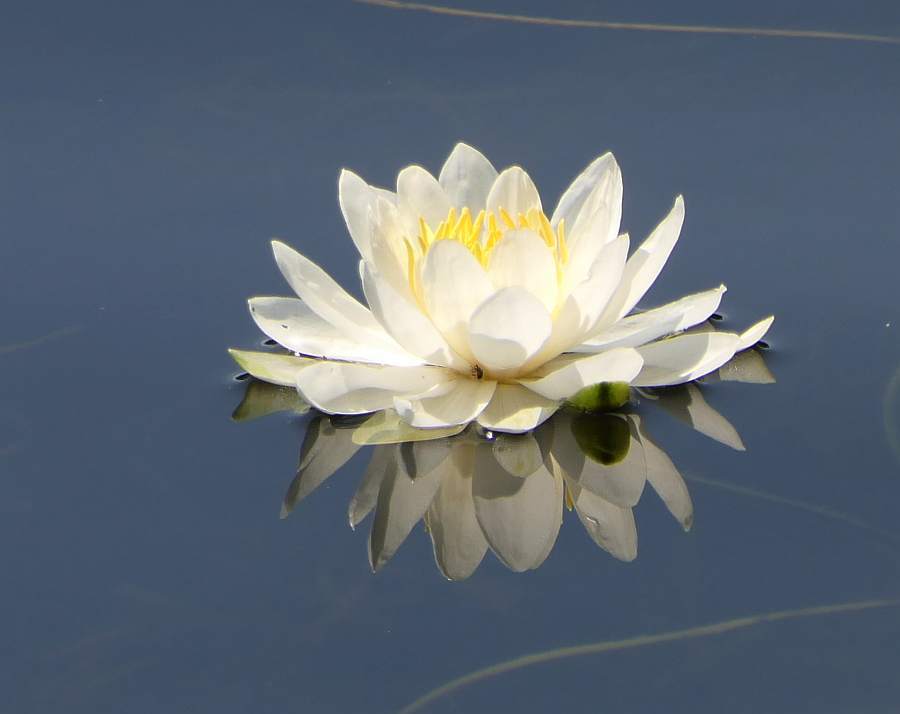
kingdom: Plantae
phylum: Tracheophyta
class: Magnoliopsida
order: Nymphaeales
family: Nymphaeaceae
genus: Nymphaea
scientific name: Nymphaea odorata
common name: Fragrant water-lily
